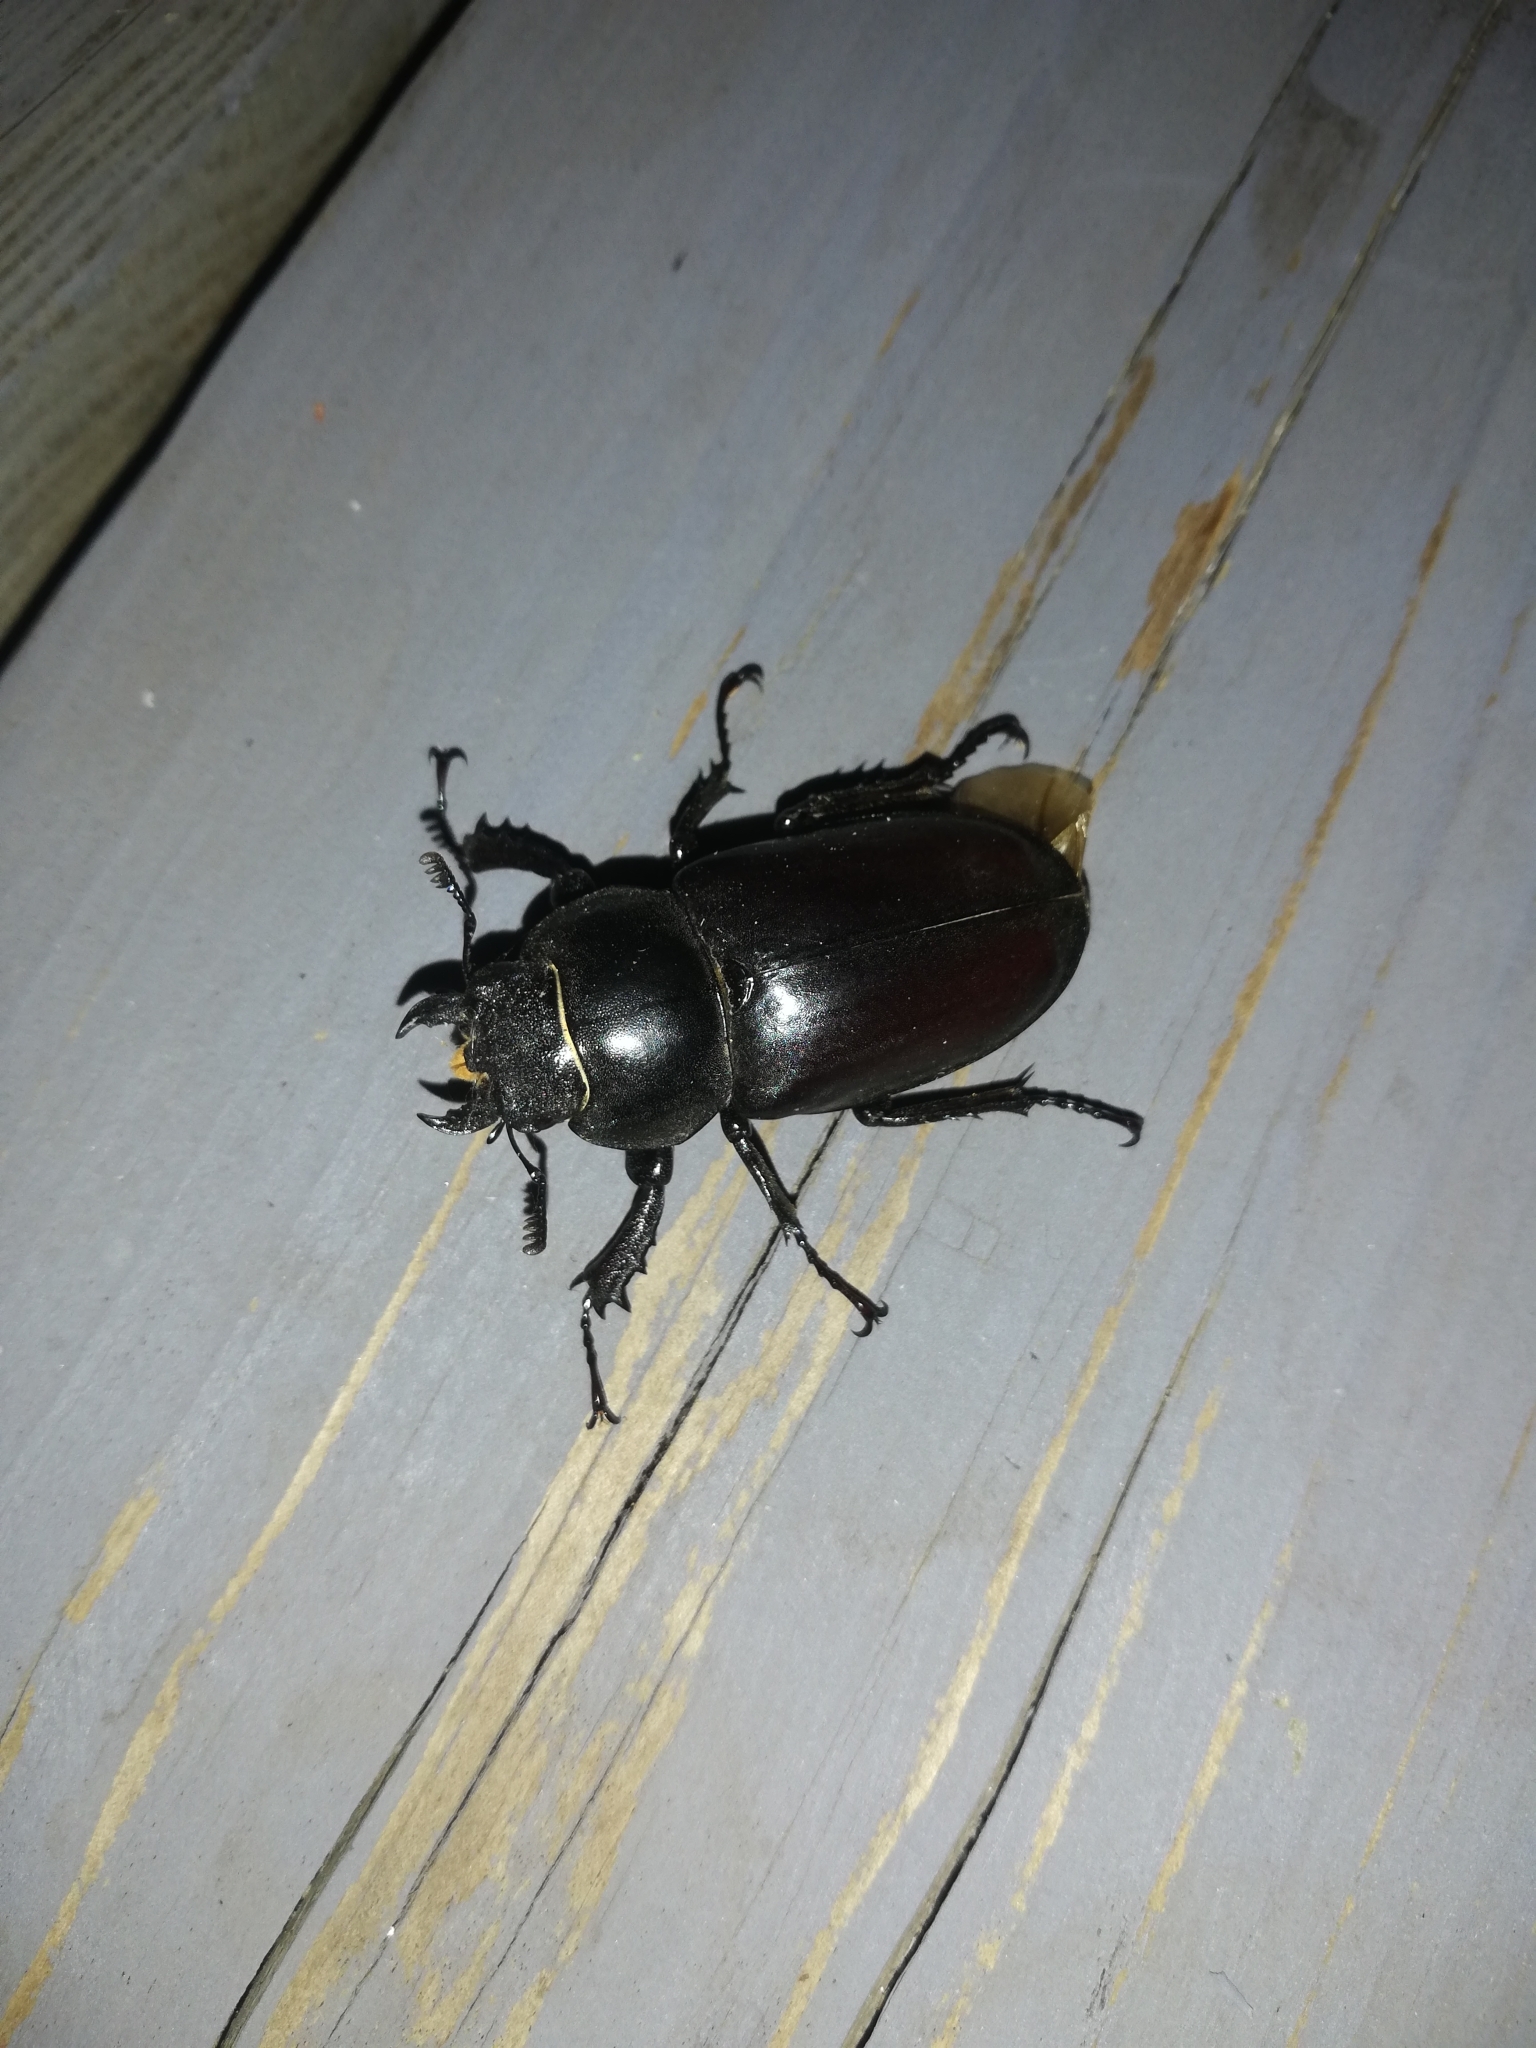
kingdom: Animalia
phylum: Arthropoda
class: Insecta
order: Coleoptera
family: Lucanidae
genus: Lucanus
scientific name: Lucanus cervus
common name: Stag beetle
